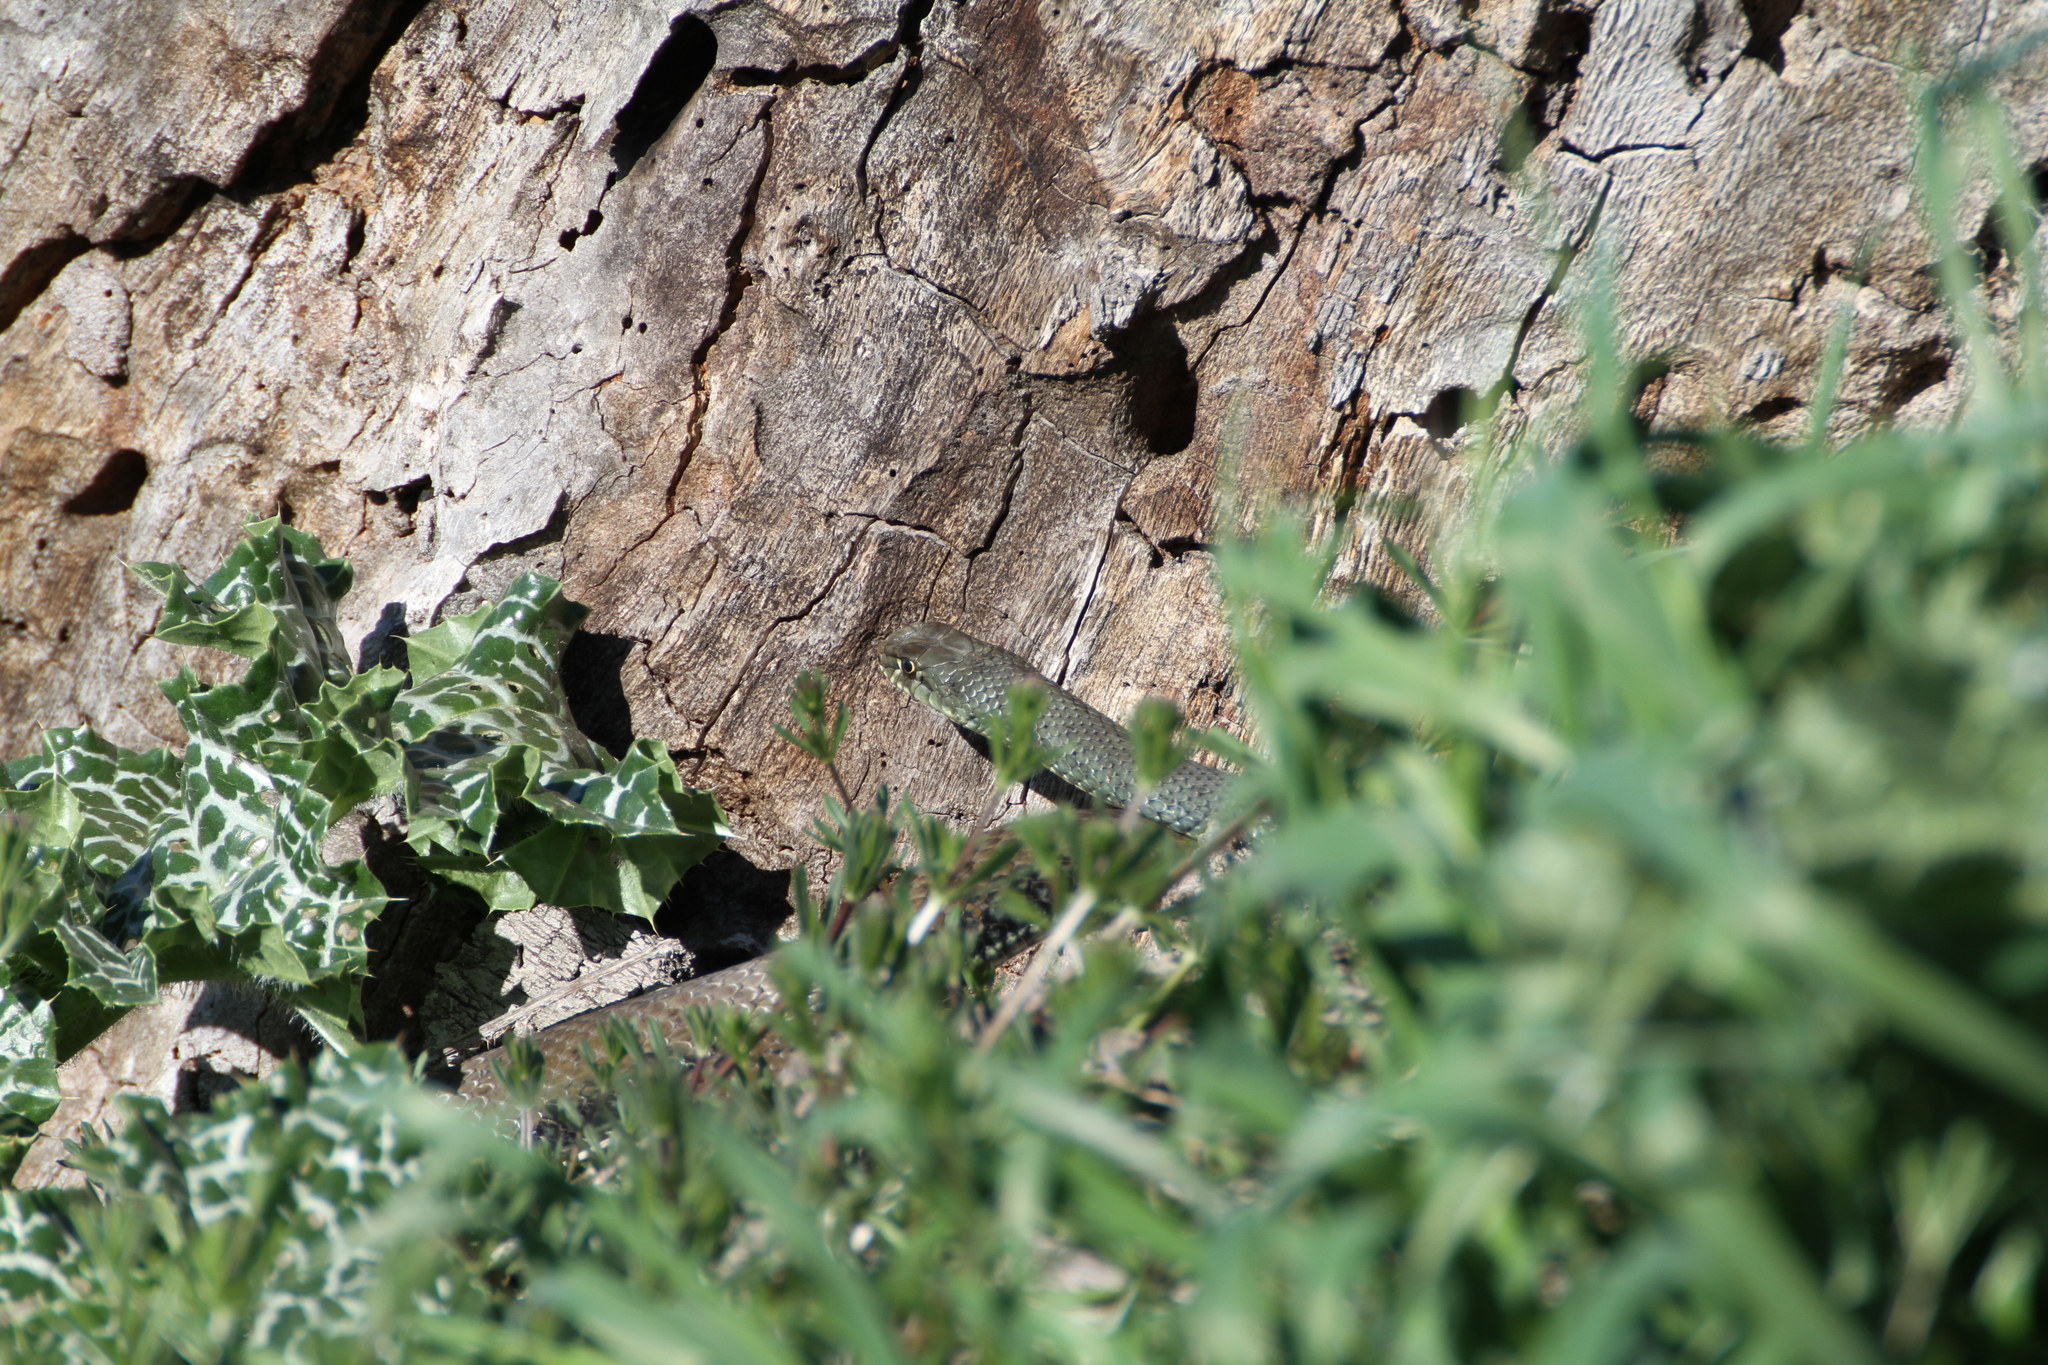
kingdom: Animalia
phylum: Chordata
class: Squamata
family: Psammophiidae
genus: Malpolon
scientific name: Malpolon monspessulanus
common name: Montpellier snake
